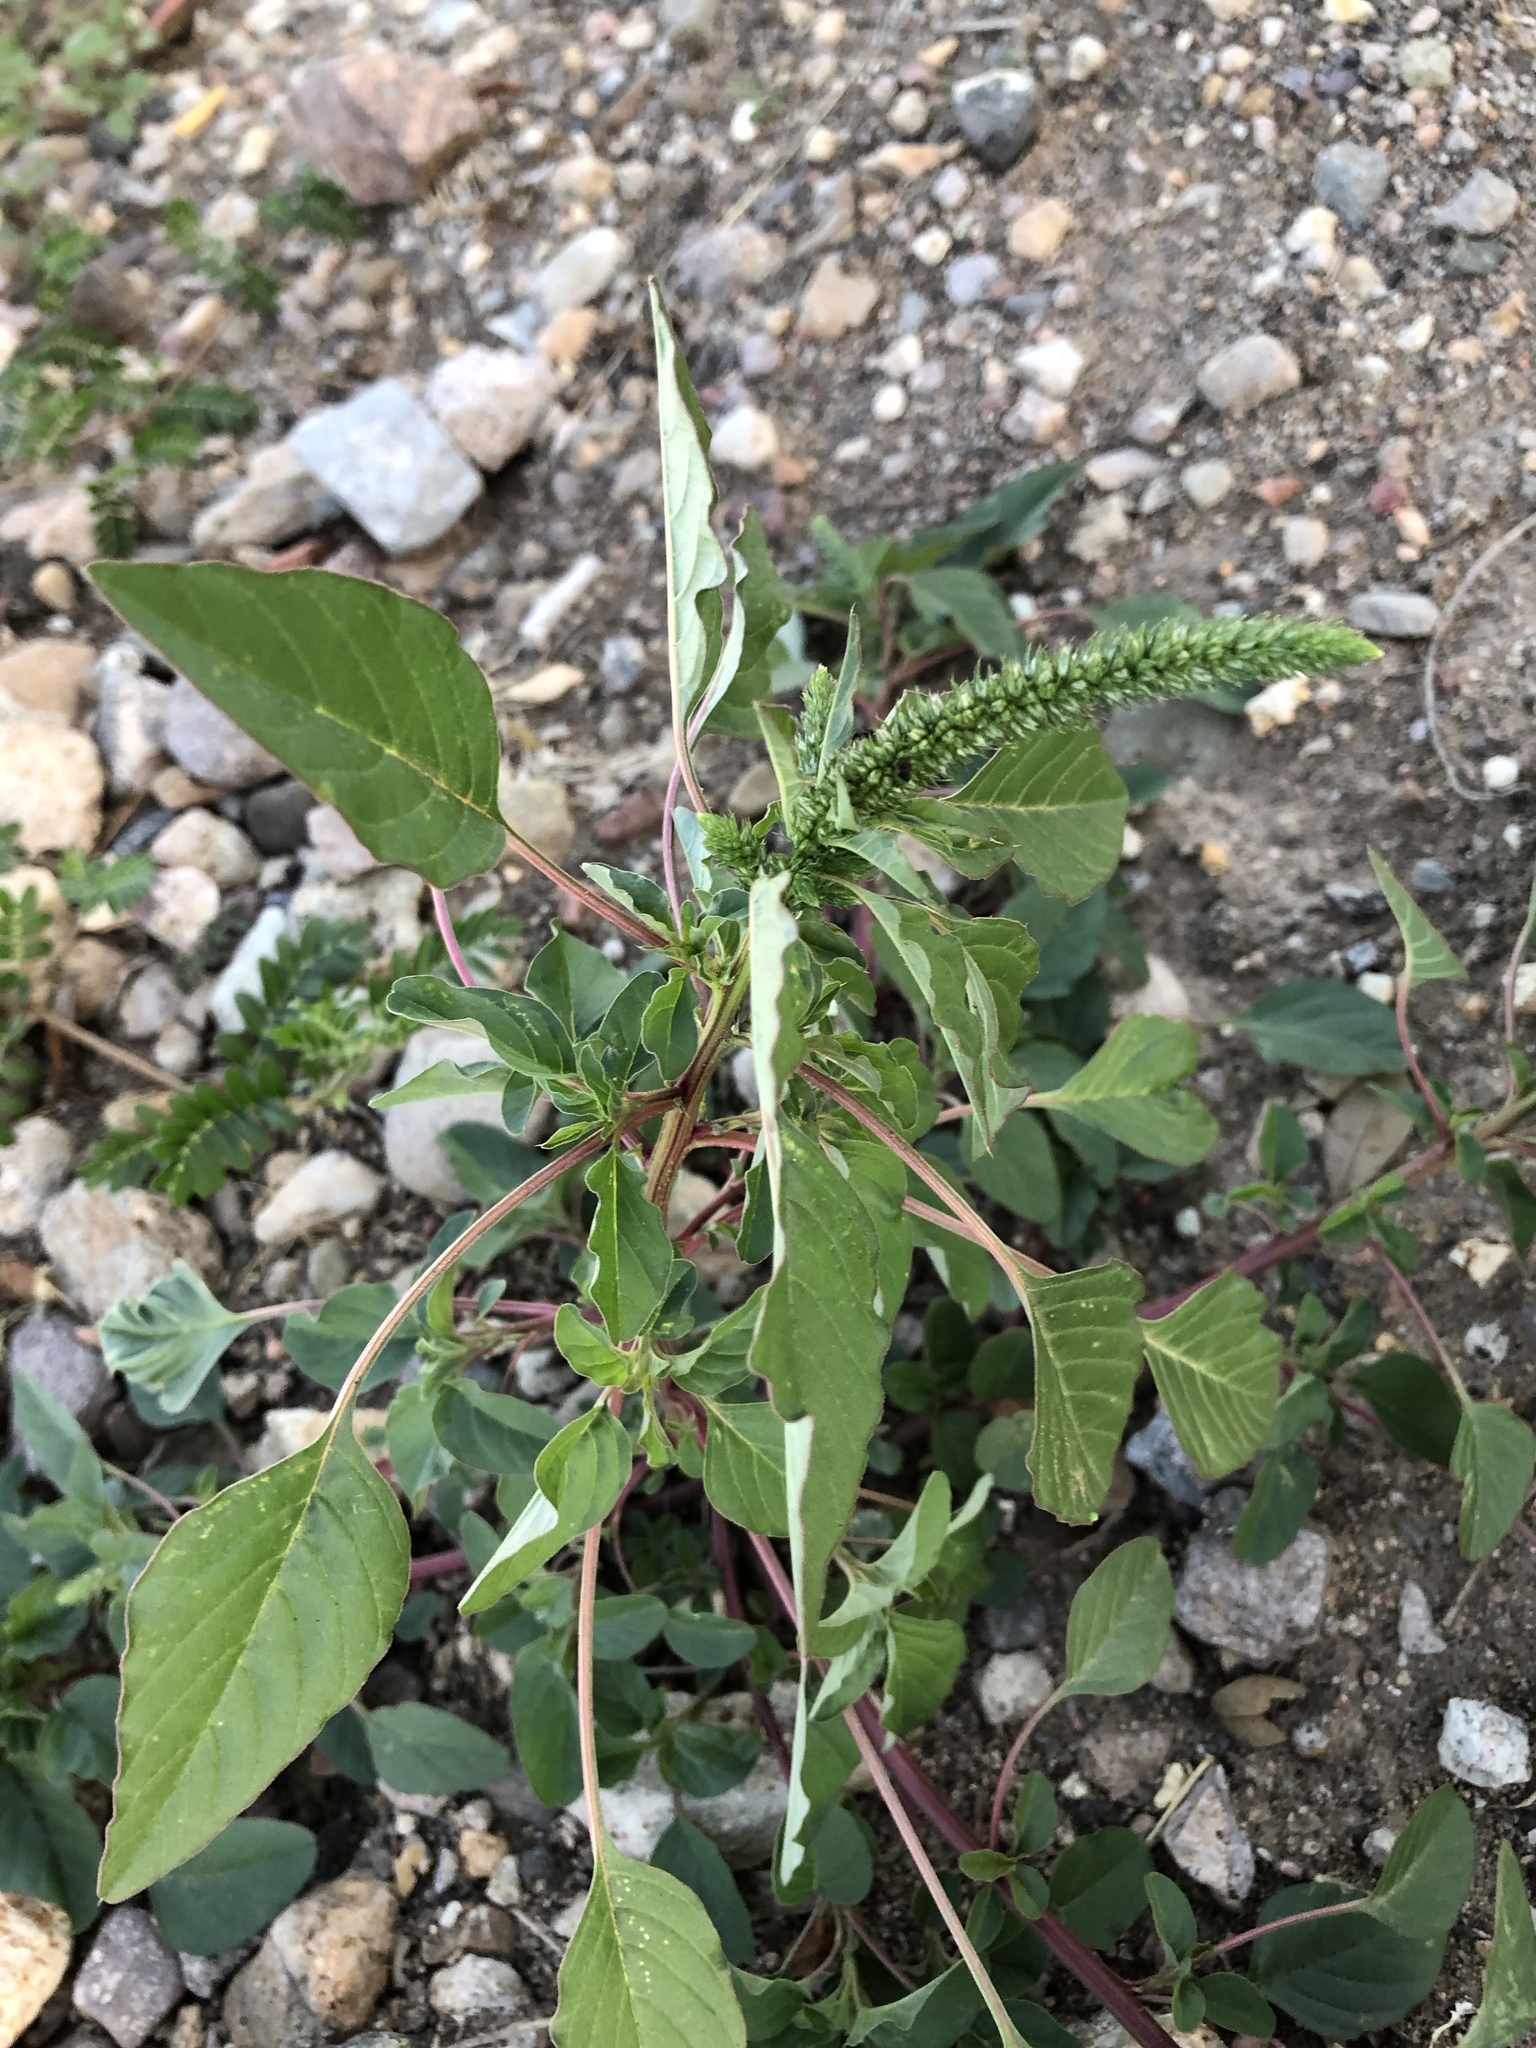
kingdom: Plantae
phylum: Tracheophyta
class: Magnoliopsida
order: Caryophyllales
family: Amaranthaceae
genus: Amaranthus
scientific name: Amaranthus palmeri
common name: Dioecious amaranth
